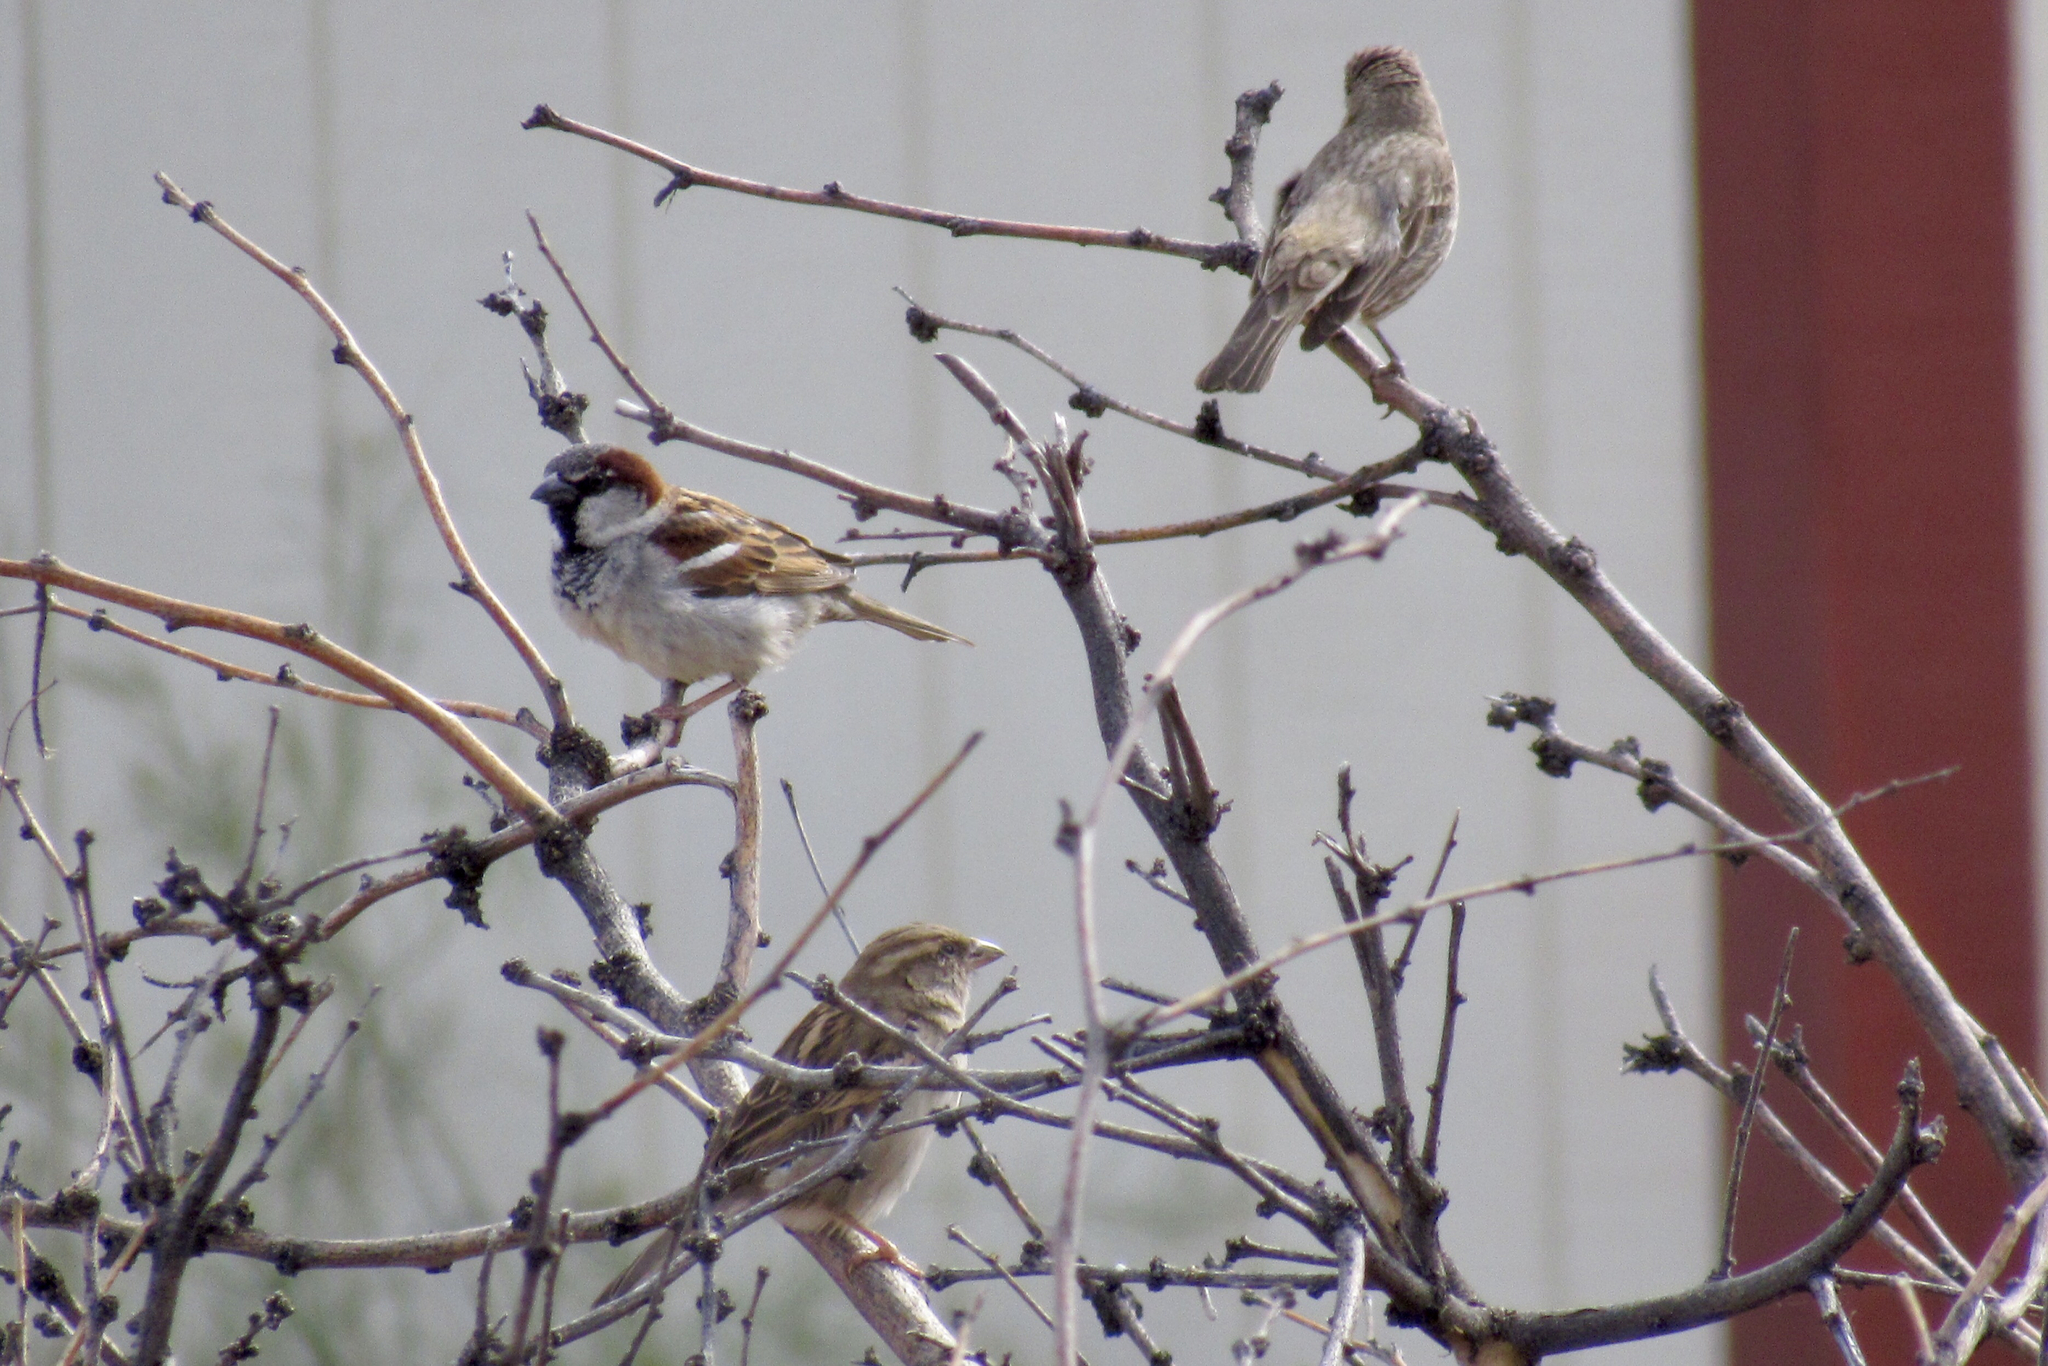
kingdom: Animalia
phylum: Chordata
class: Aves
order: Passeriformes
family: Passeridae
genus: Passer
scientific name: Passer domesticus
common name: House sparrow
